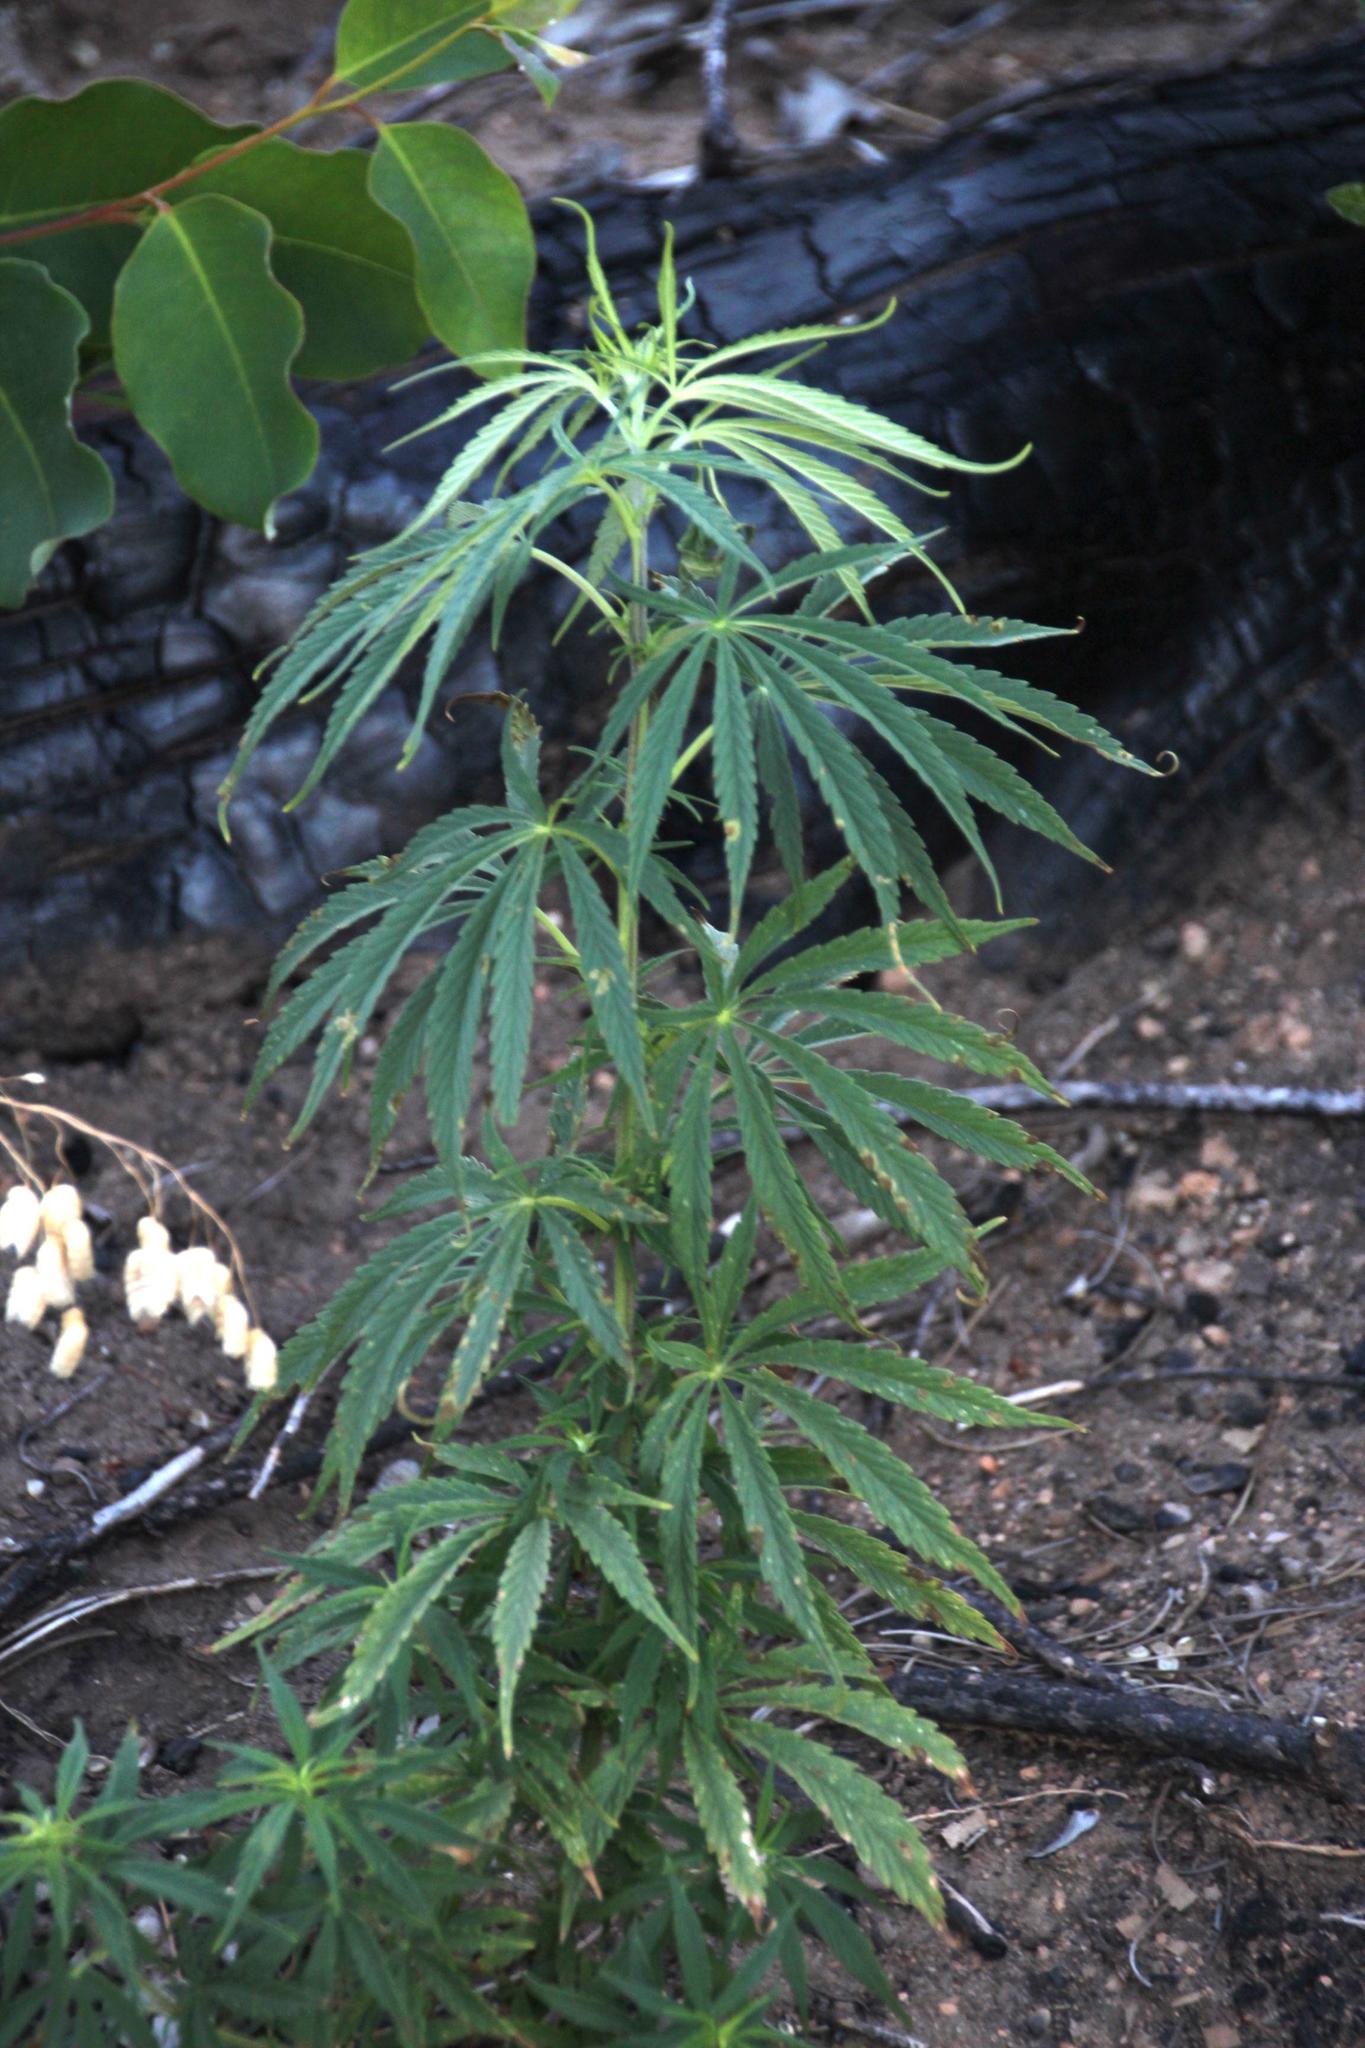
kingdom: Plantae
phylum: Tracheophyta
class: Magnoliopsida
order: Rosales
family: Cannabaceae
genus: Cannabis
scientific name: Cannabis sativa
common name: Hemp
